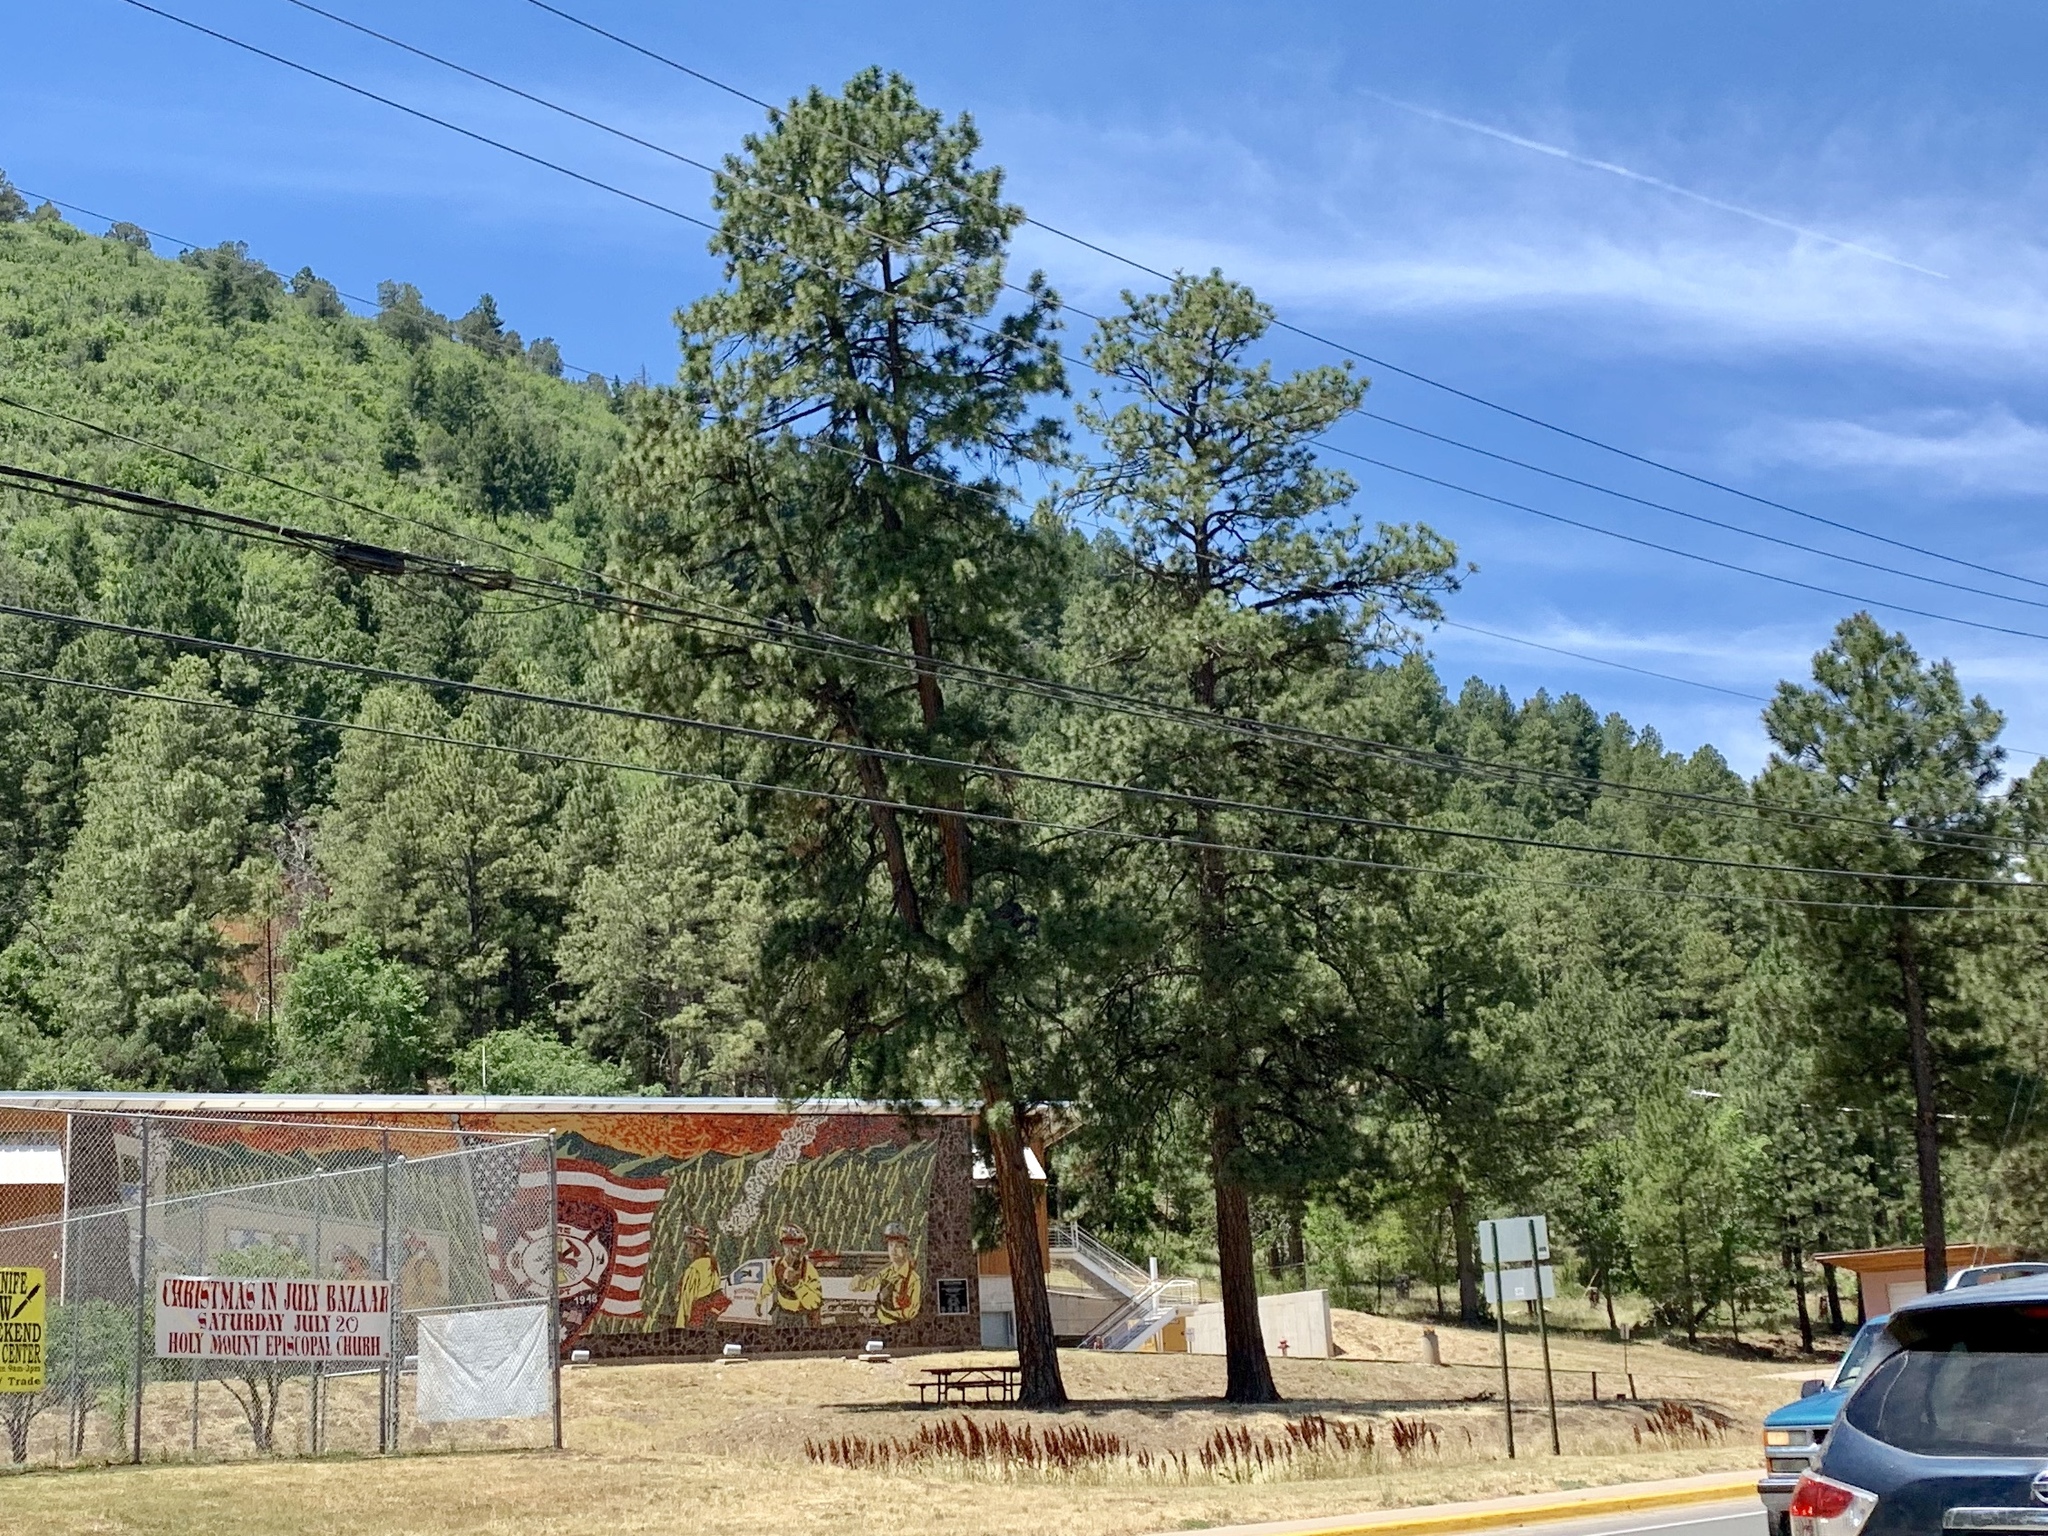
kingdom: Plantae
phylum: Tracheophyta
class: Pinopsida
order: Pinales
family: Pinaceae
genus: Pinus
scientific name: Pinus ponderosa
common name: Western yellow-pine
